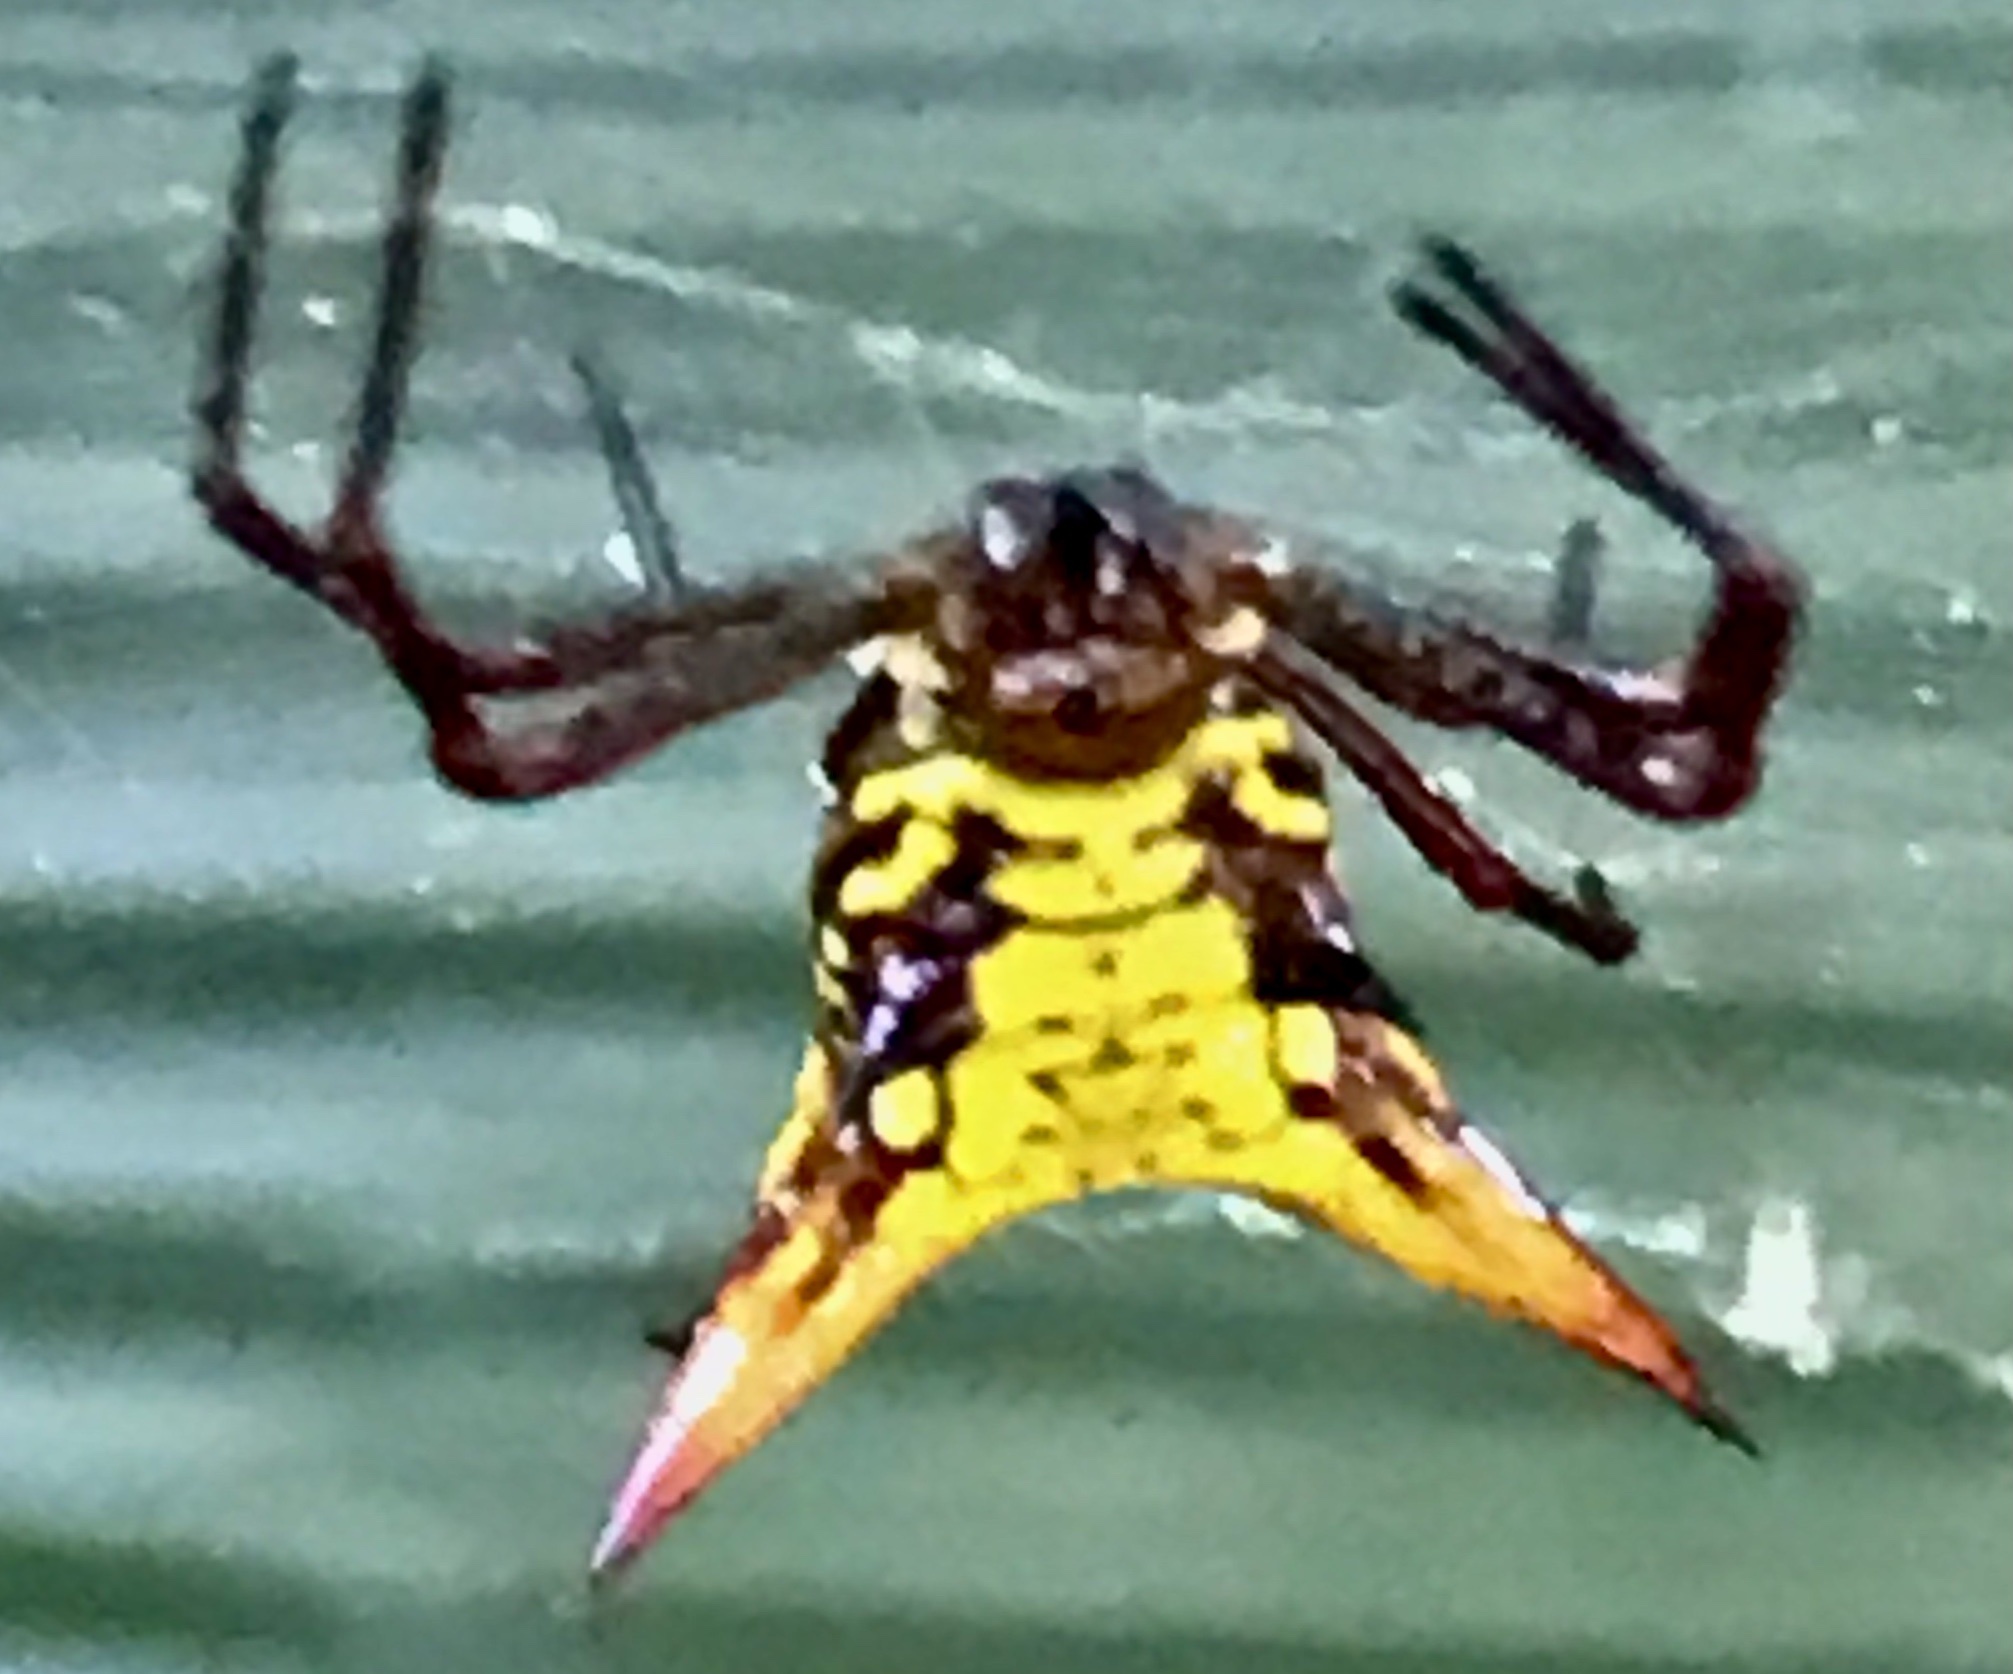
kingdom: Animalia
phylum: Arthropoda
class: Arachnida
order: Araneae
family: Araneidae
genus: Micrathena
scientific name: Micrathena fissispina
